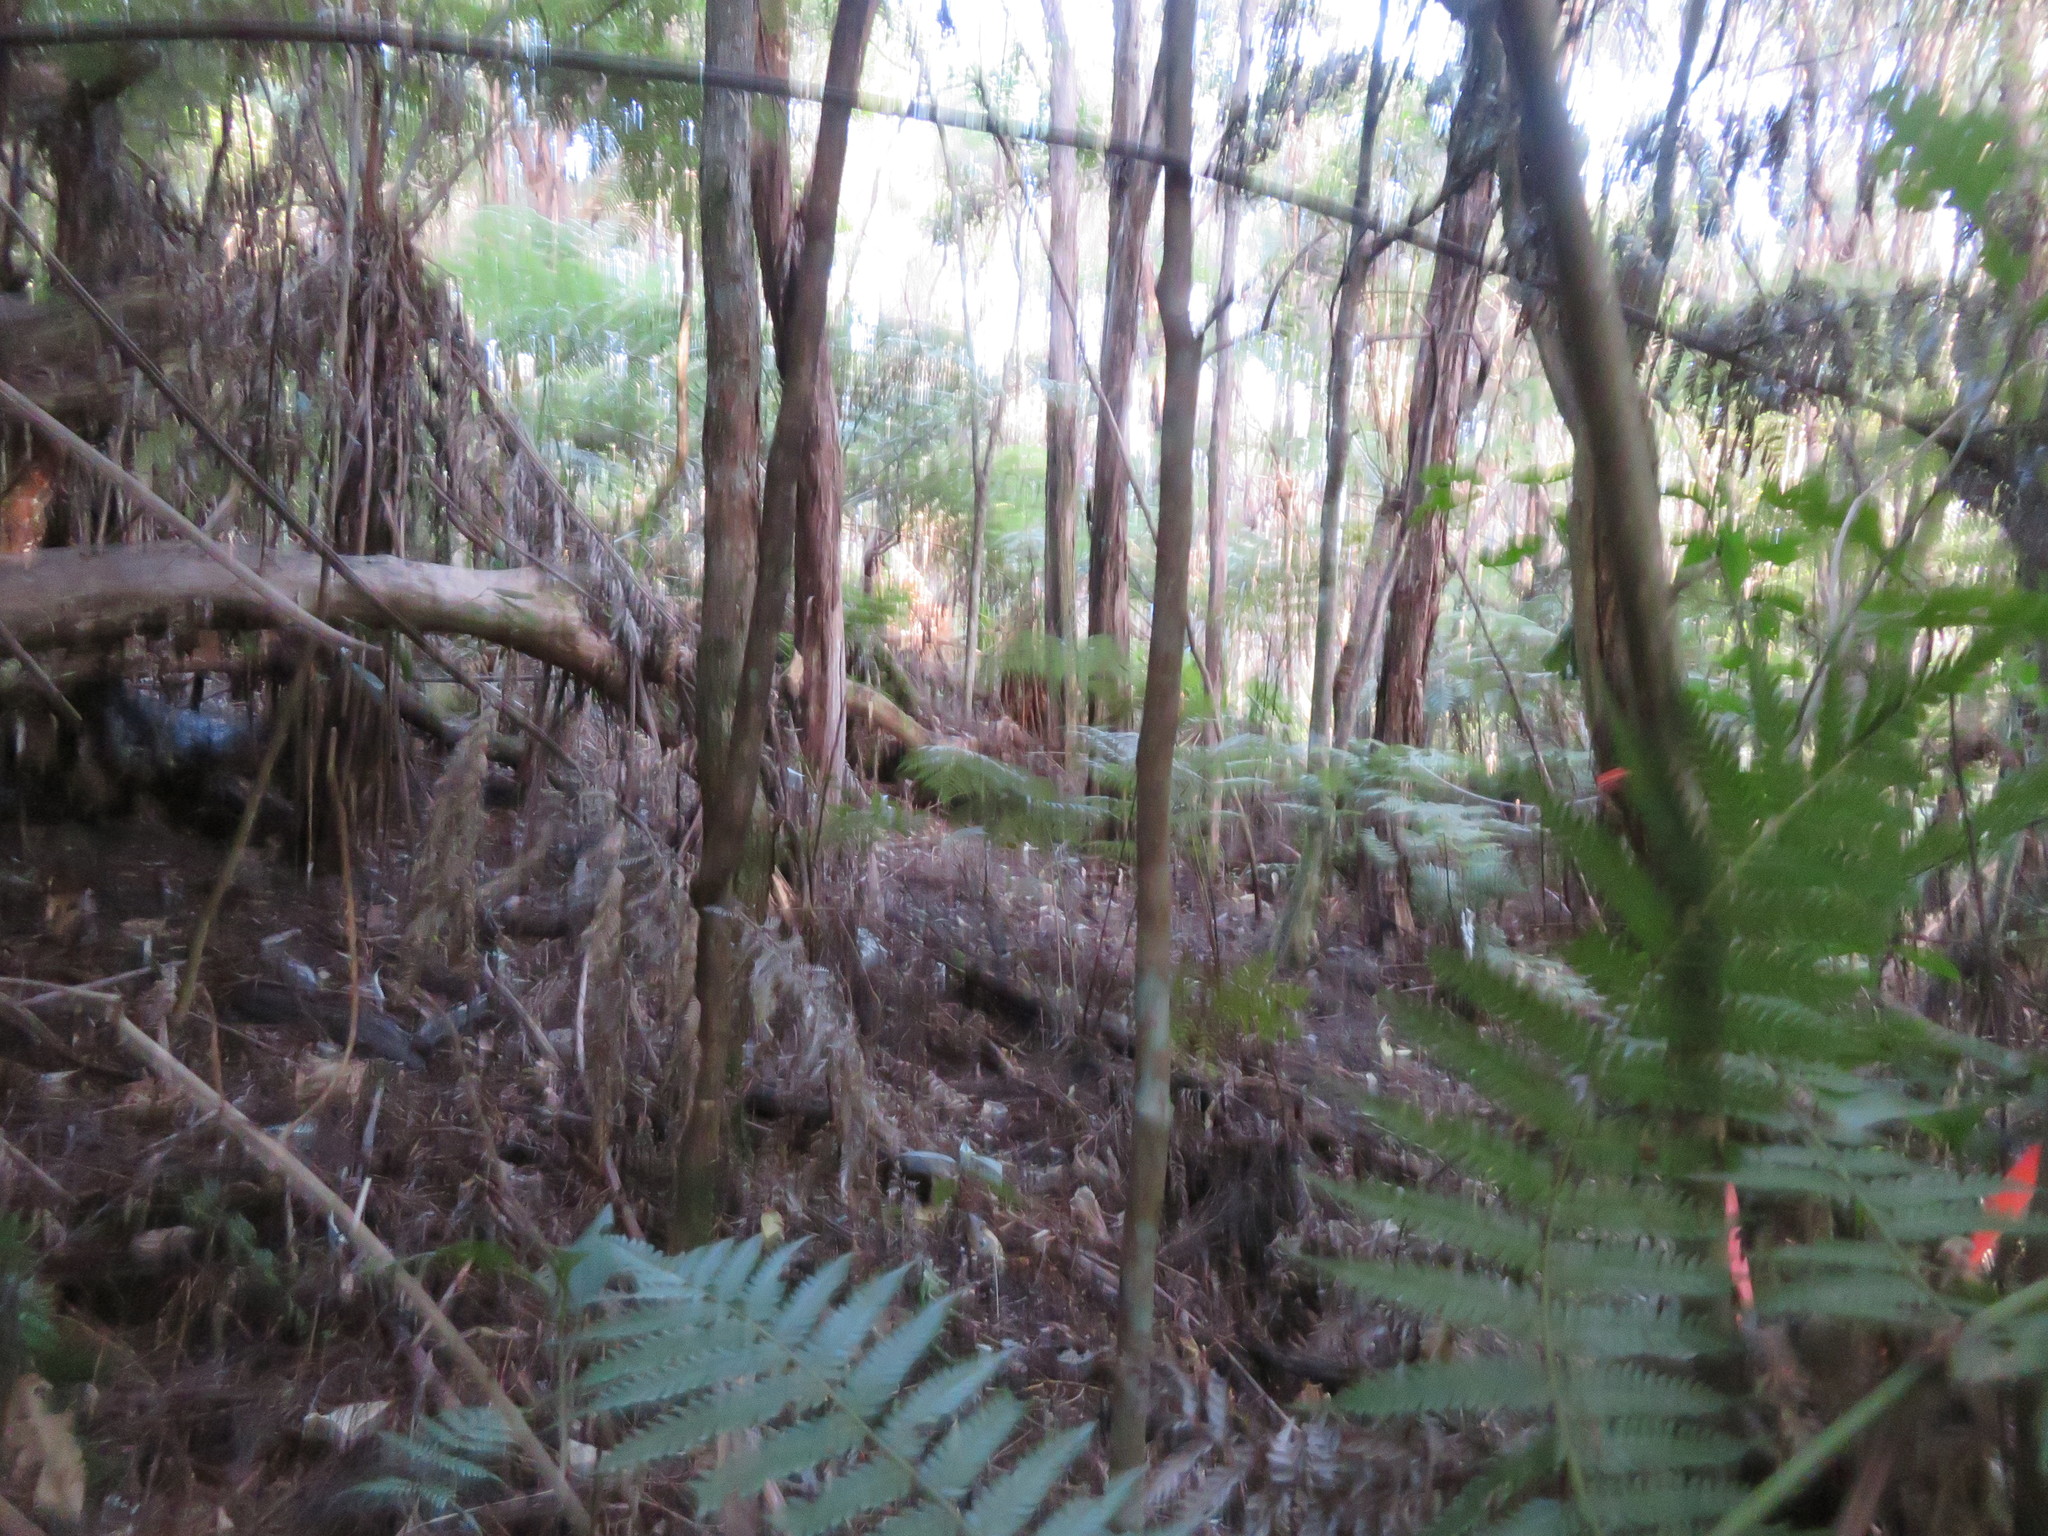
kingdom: Plantae
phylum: Tracheophyta
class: Polypodiopsida
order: Cyatheales
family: Cyatheaceae
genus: Alsophila
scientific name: Alsophila dealbata
